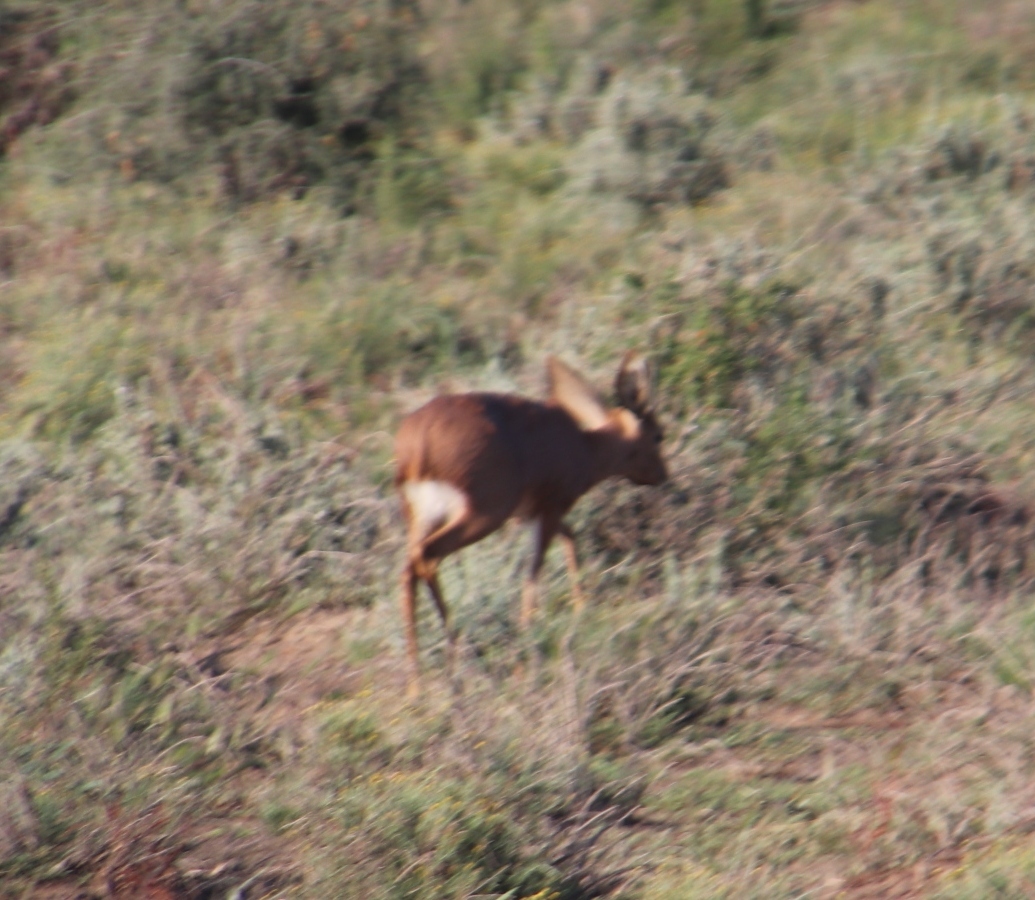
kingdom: Animalia
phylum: Chordata
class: Mammalia
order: Artiodactyla
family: Bovidae
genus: Raphicerus
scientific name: Raphicerus campestris
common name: Steenbok
